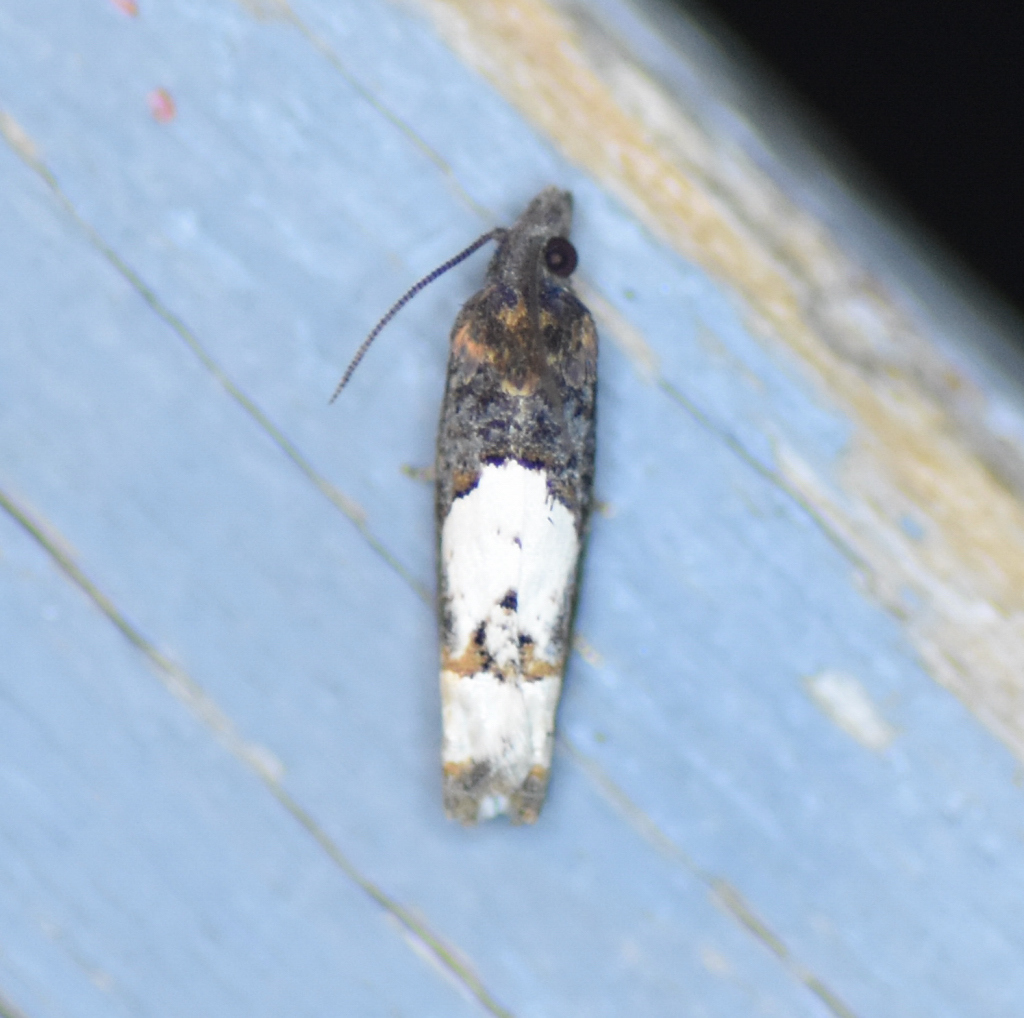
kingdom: Animalia
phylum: Arthropoda
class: Insecta
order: Lepidoptera
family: Tortricidae
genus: Eucosma
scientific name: Eucosma parmatana
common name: Aster eucosma moth
